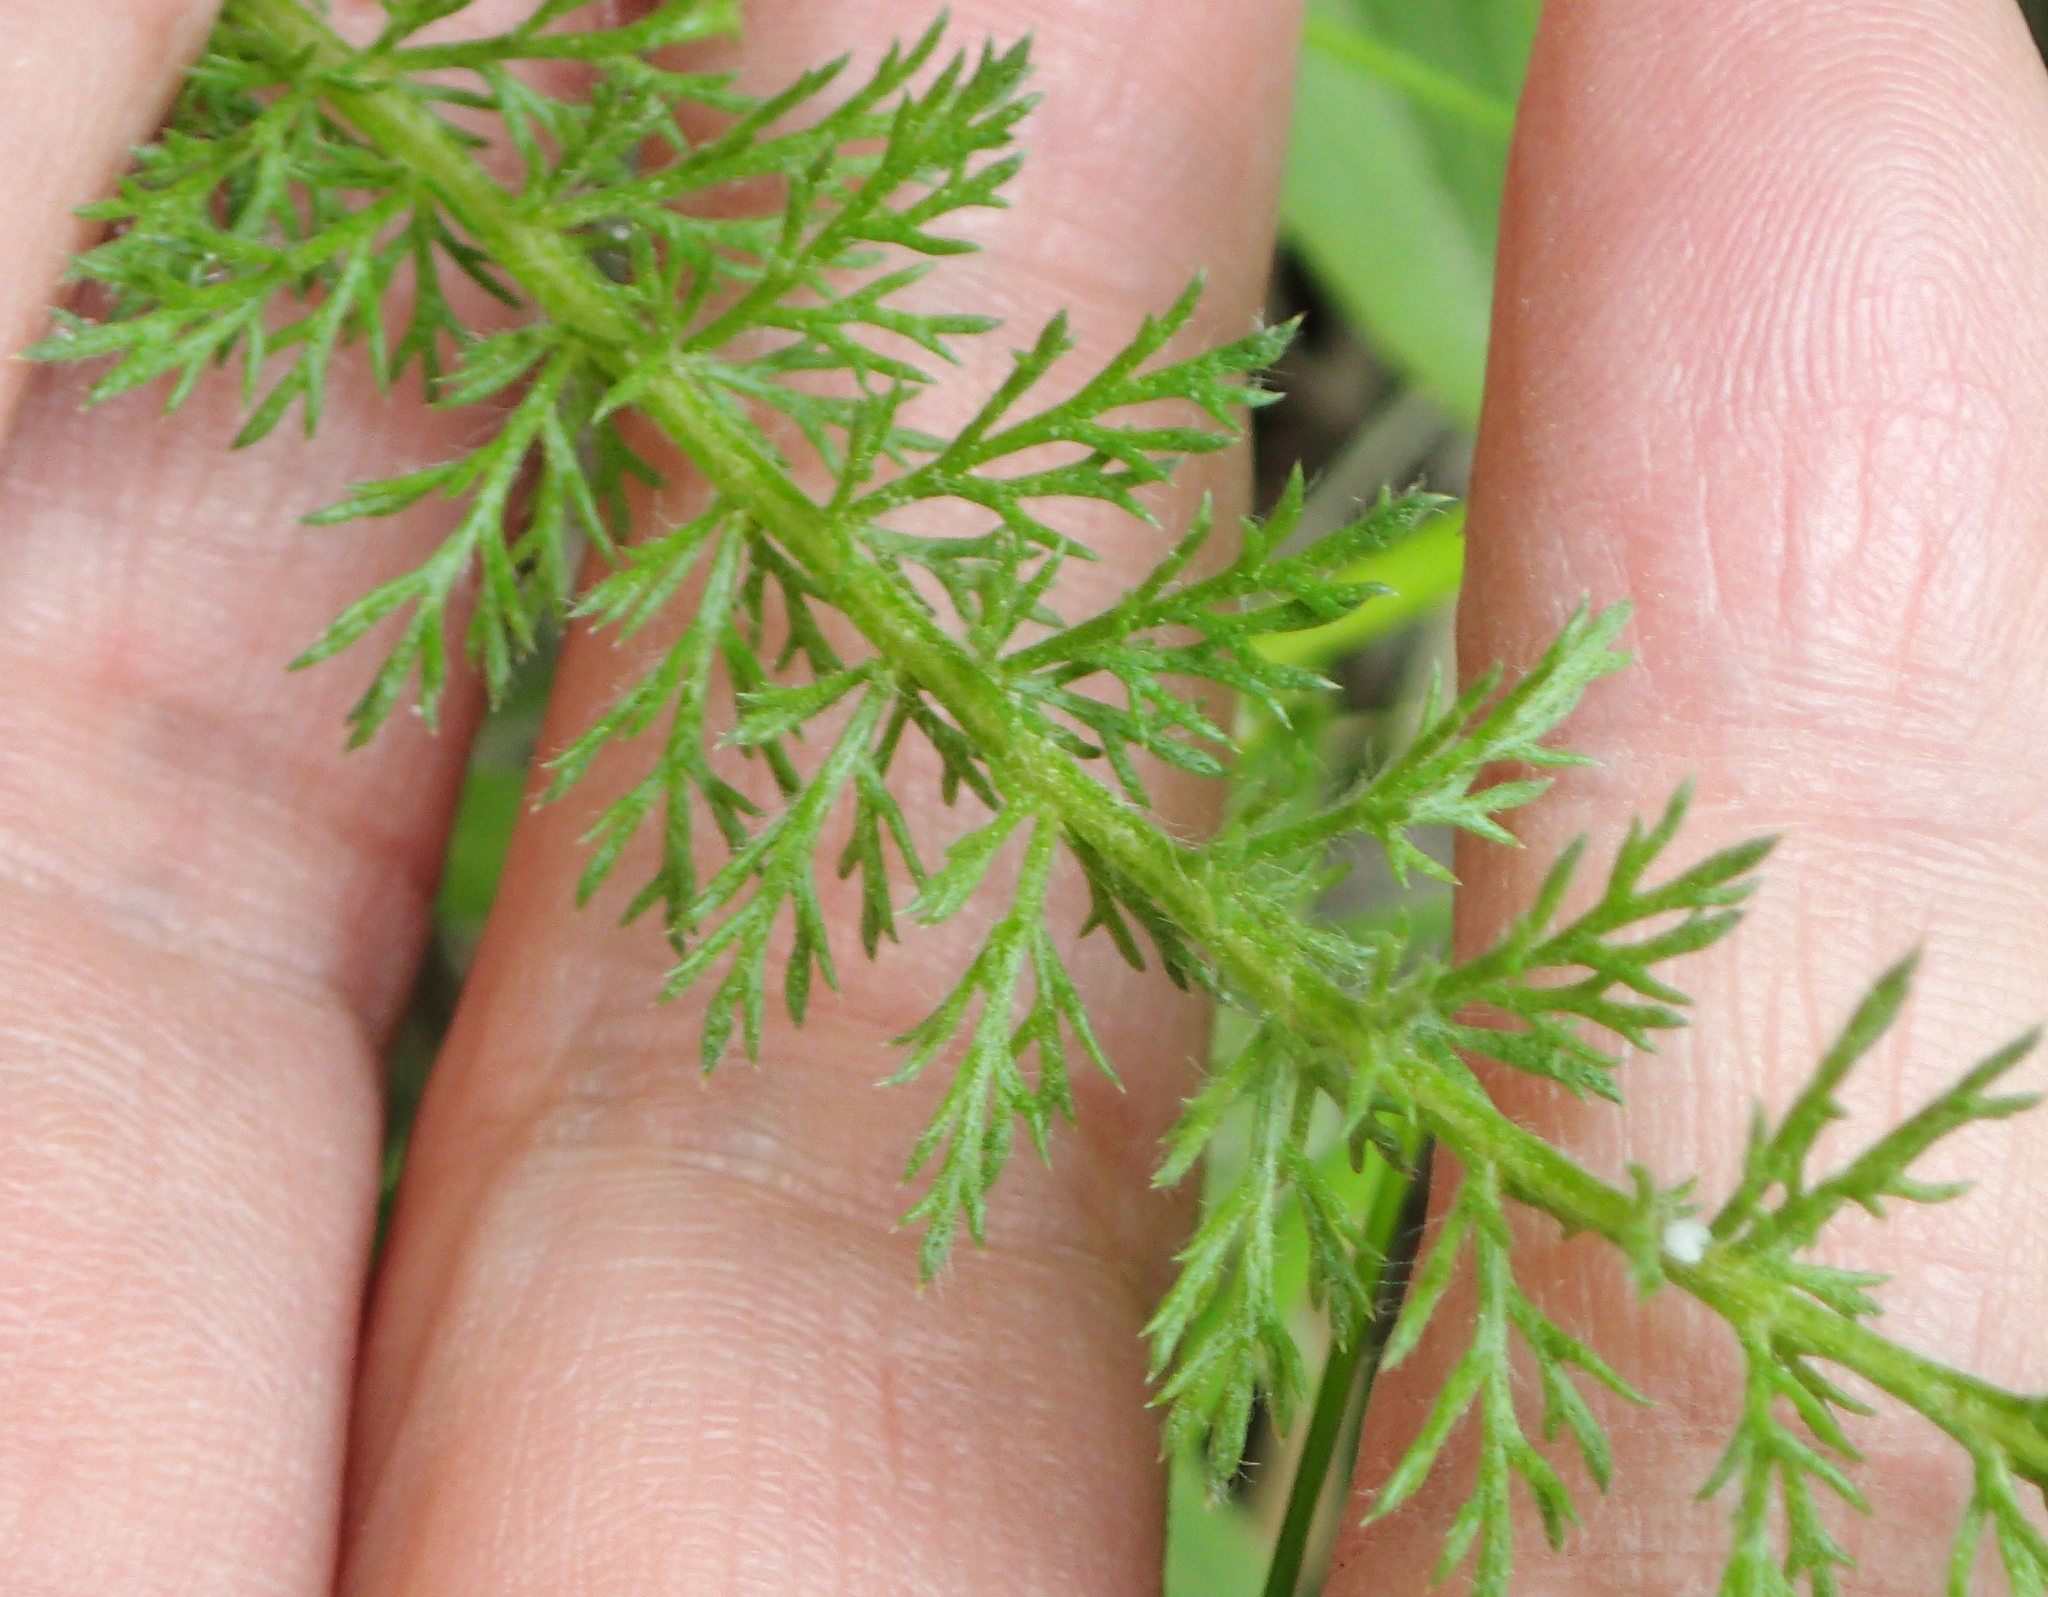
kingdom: Plantae
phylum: Tracheophyta
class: Magnoliopsida
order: Asterales
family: Asteraceae
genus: Achillea
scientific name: Achillea millefolium
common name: Yarrow
